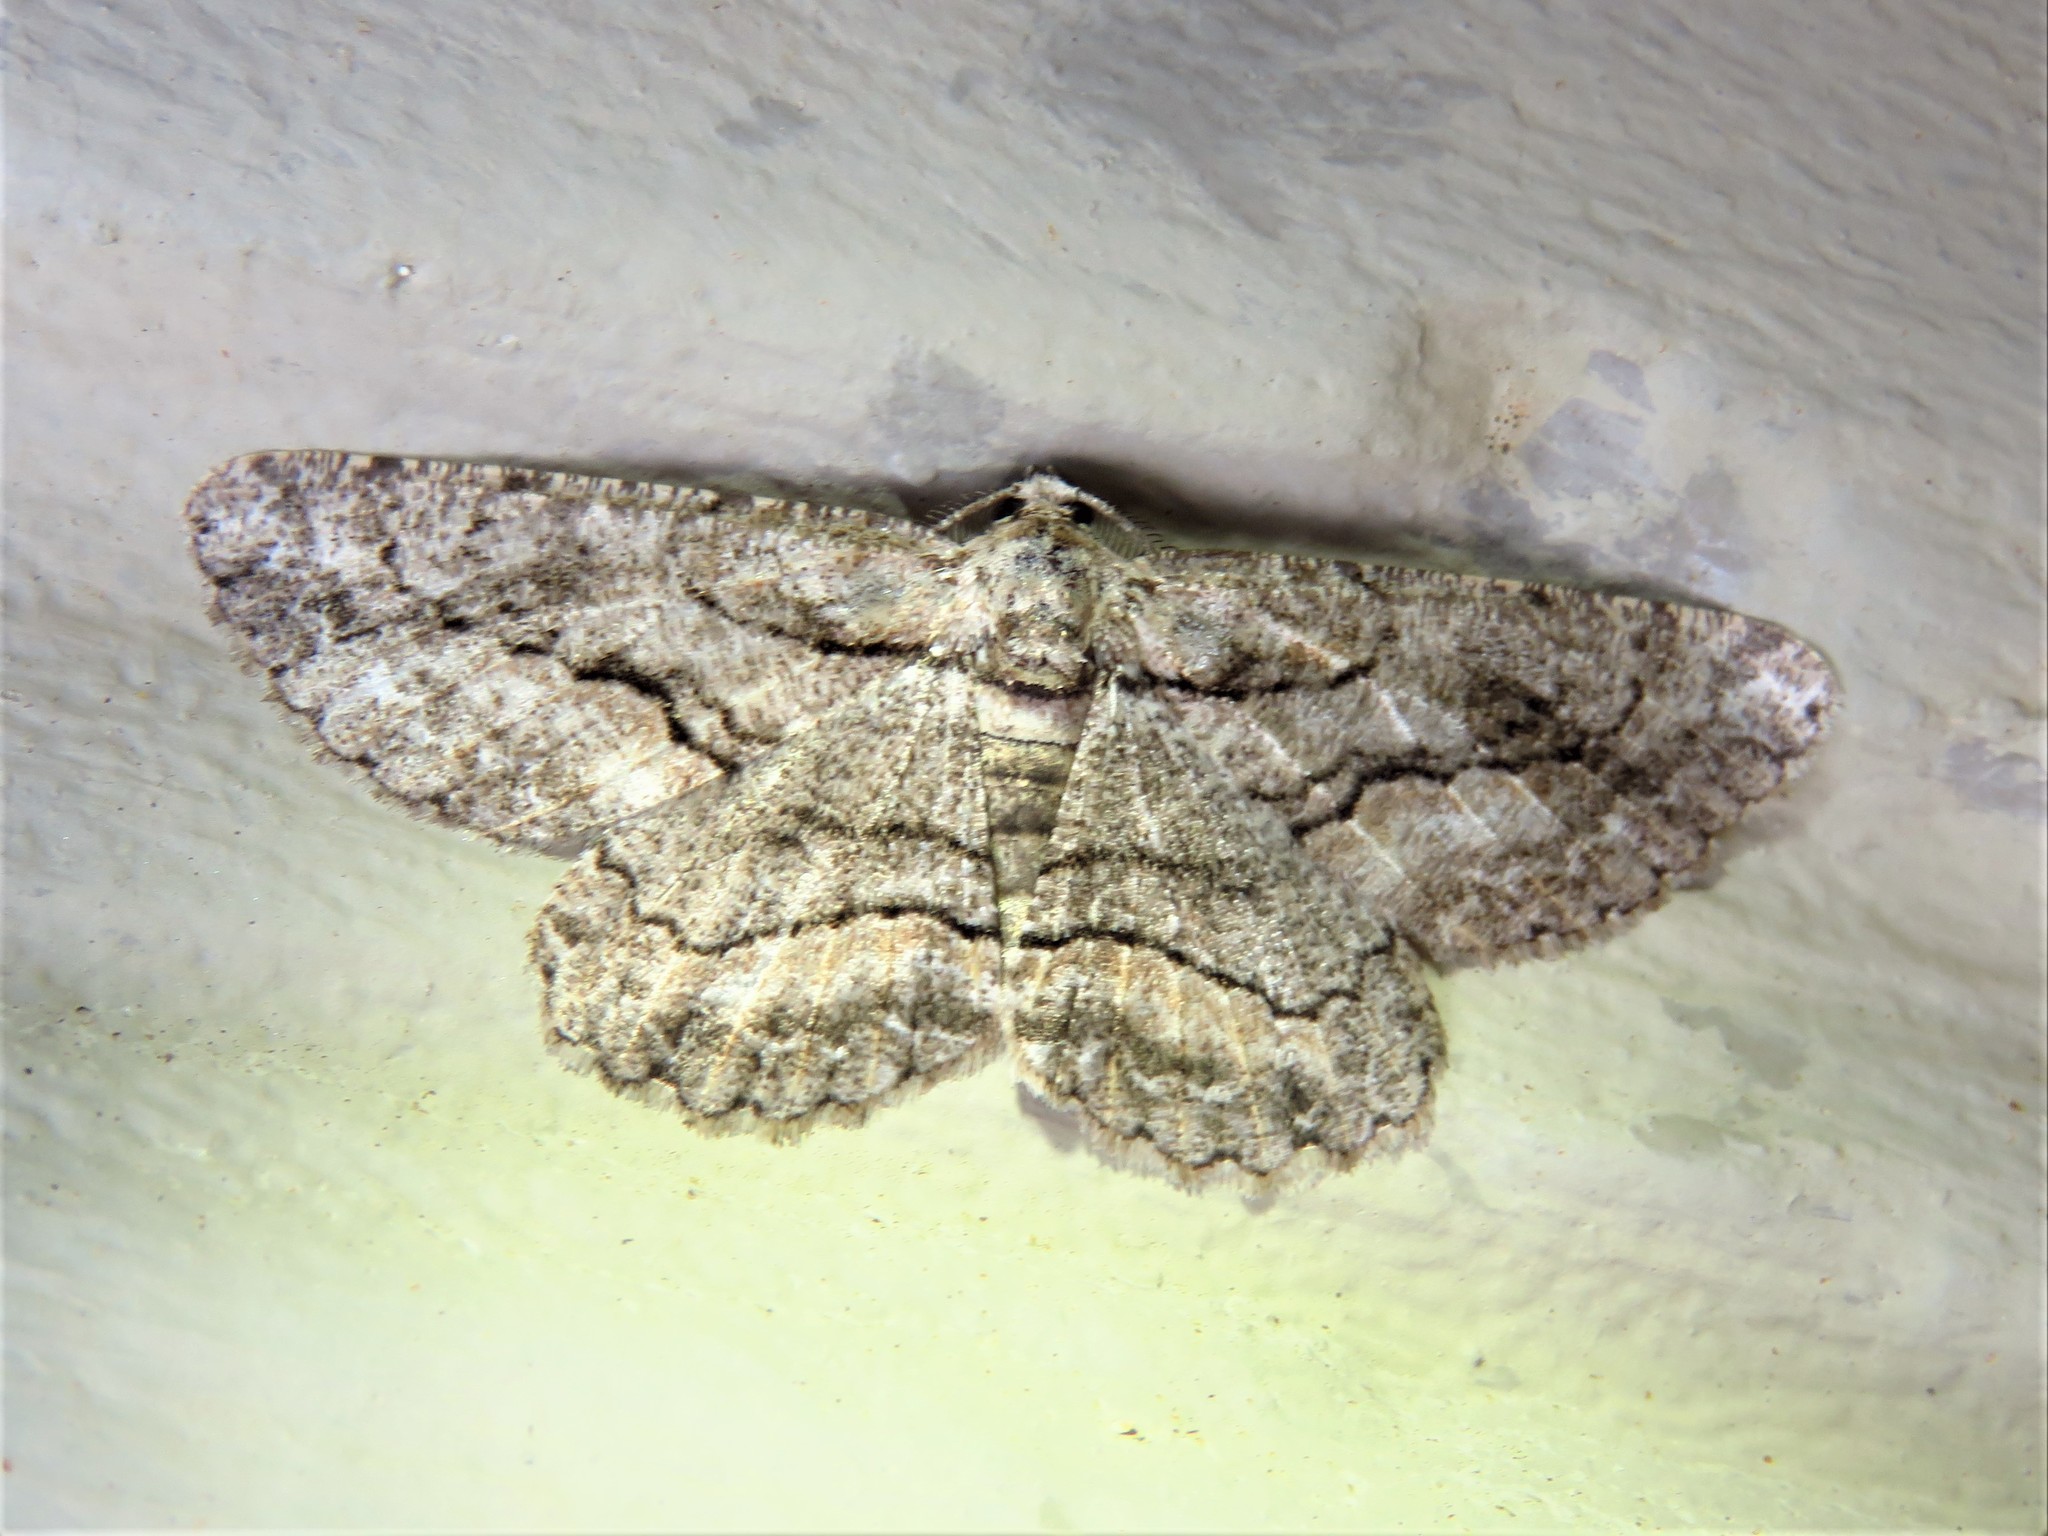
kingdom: Animalia
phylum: Arthropoda
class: Insecta
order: Lepidoptera
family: Geometridae
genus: Anavitrinella
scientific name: Anavitrinella pampinaria
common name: Common gray
